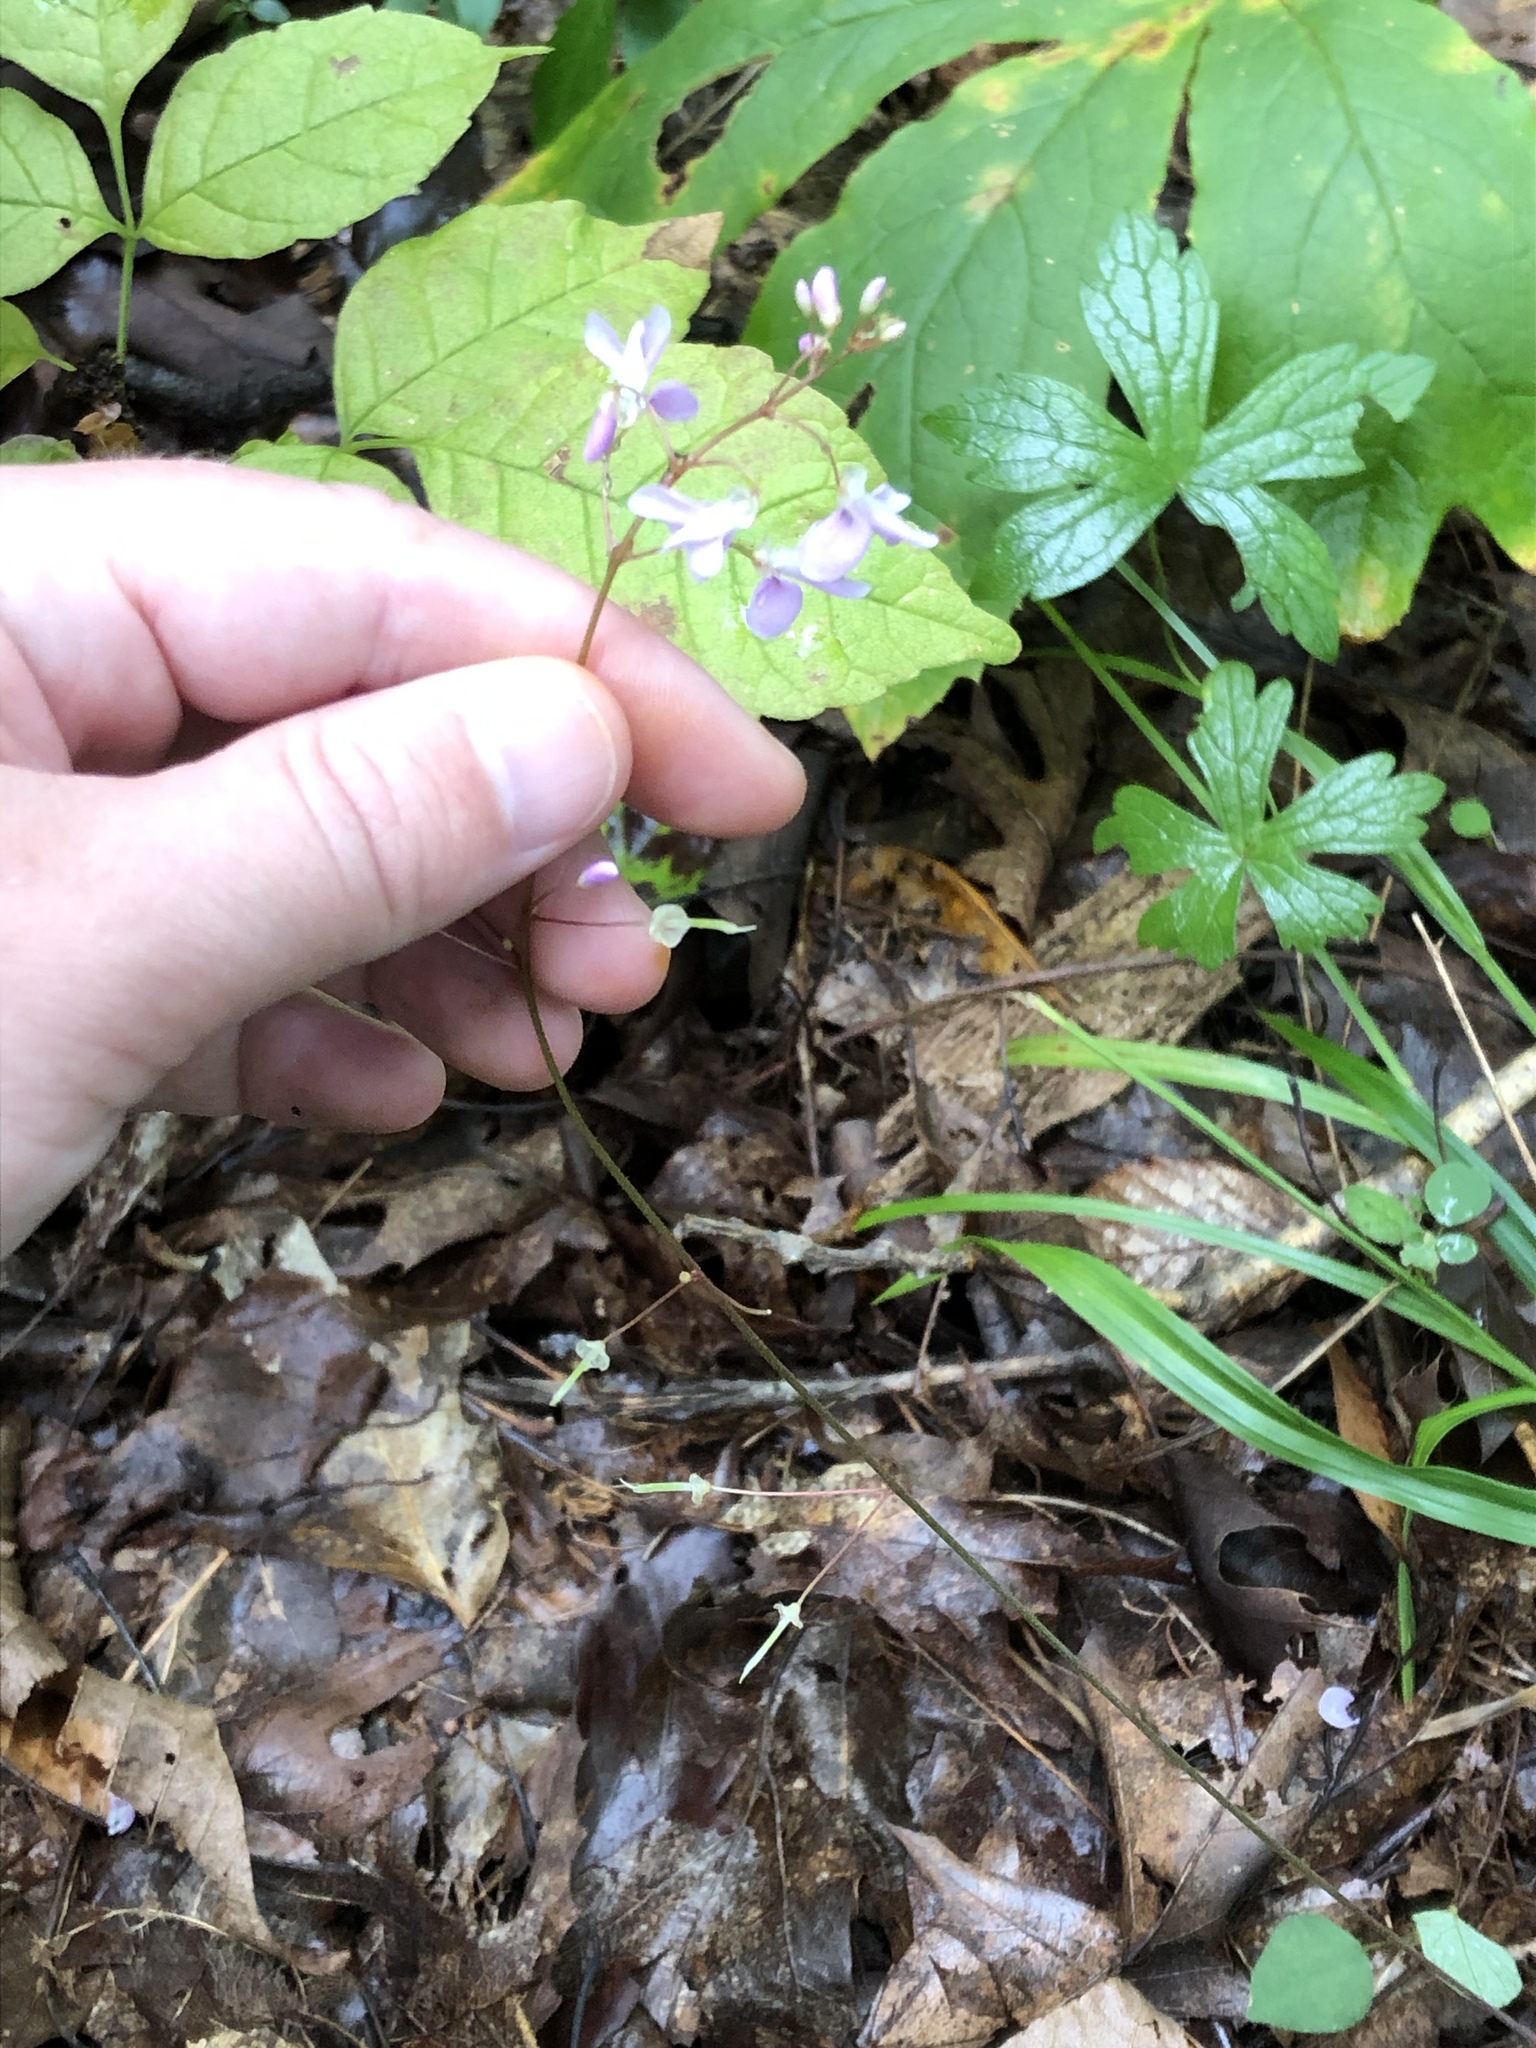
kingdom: Plantae
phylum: Tracheophyta
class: Magnoliopsida
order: Fabales
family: Fabaceae
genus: Hylodesmum
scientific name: Hylodesmum nudiflorum
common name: Bare-stemmed tick-trefoil
